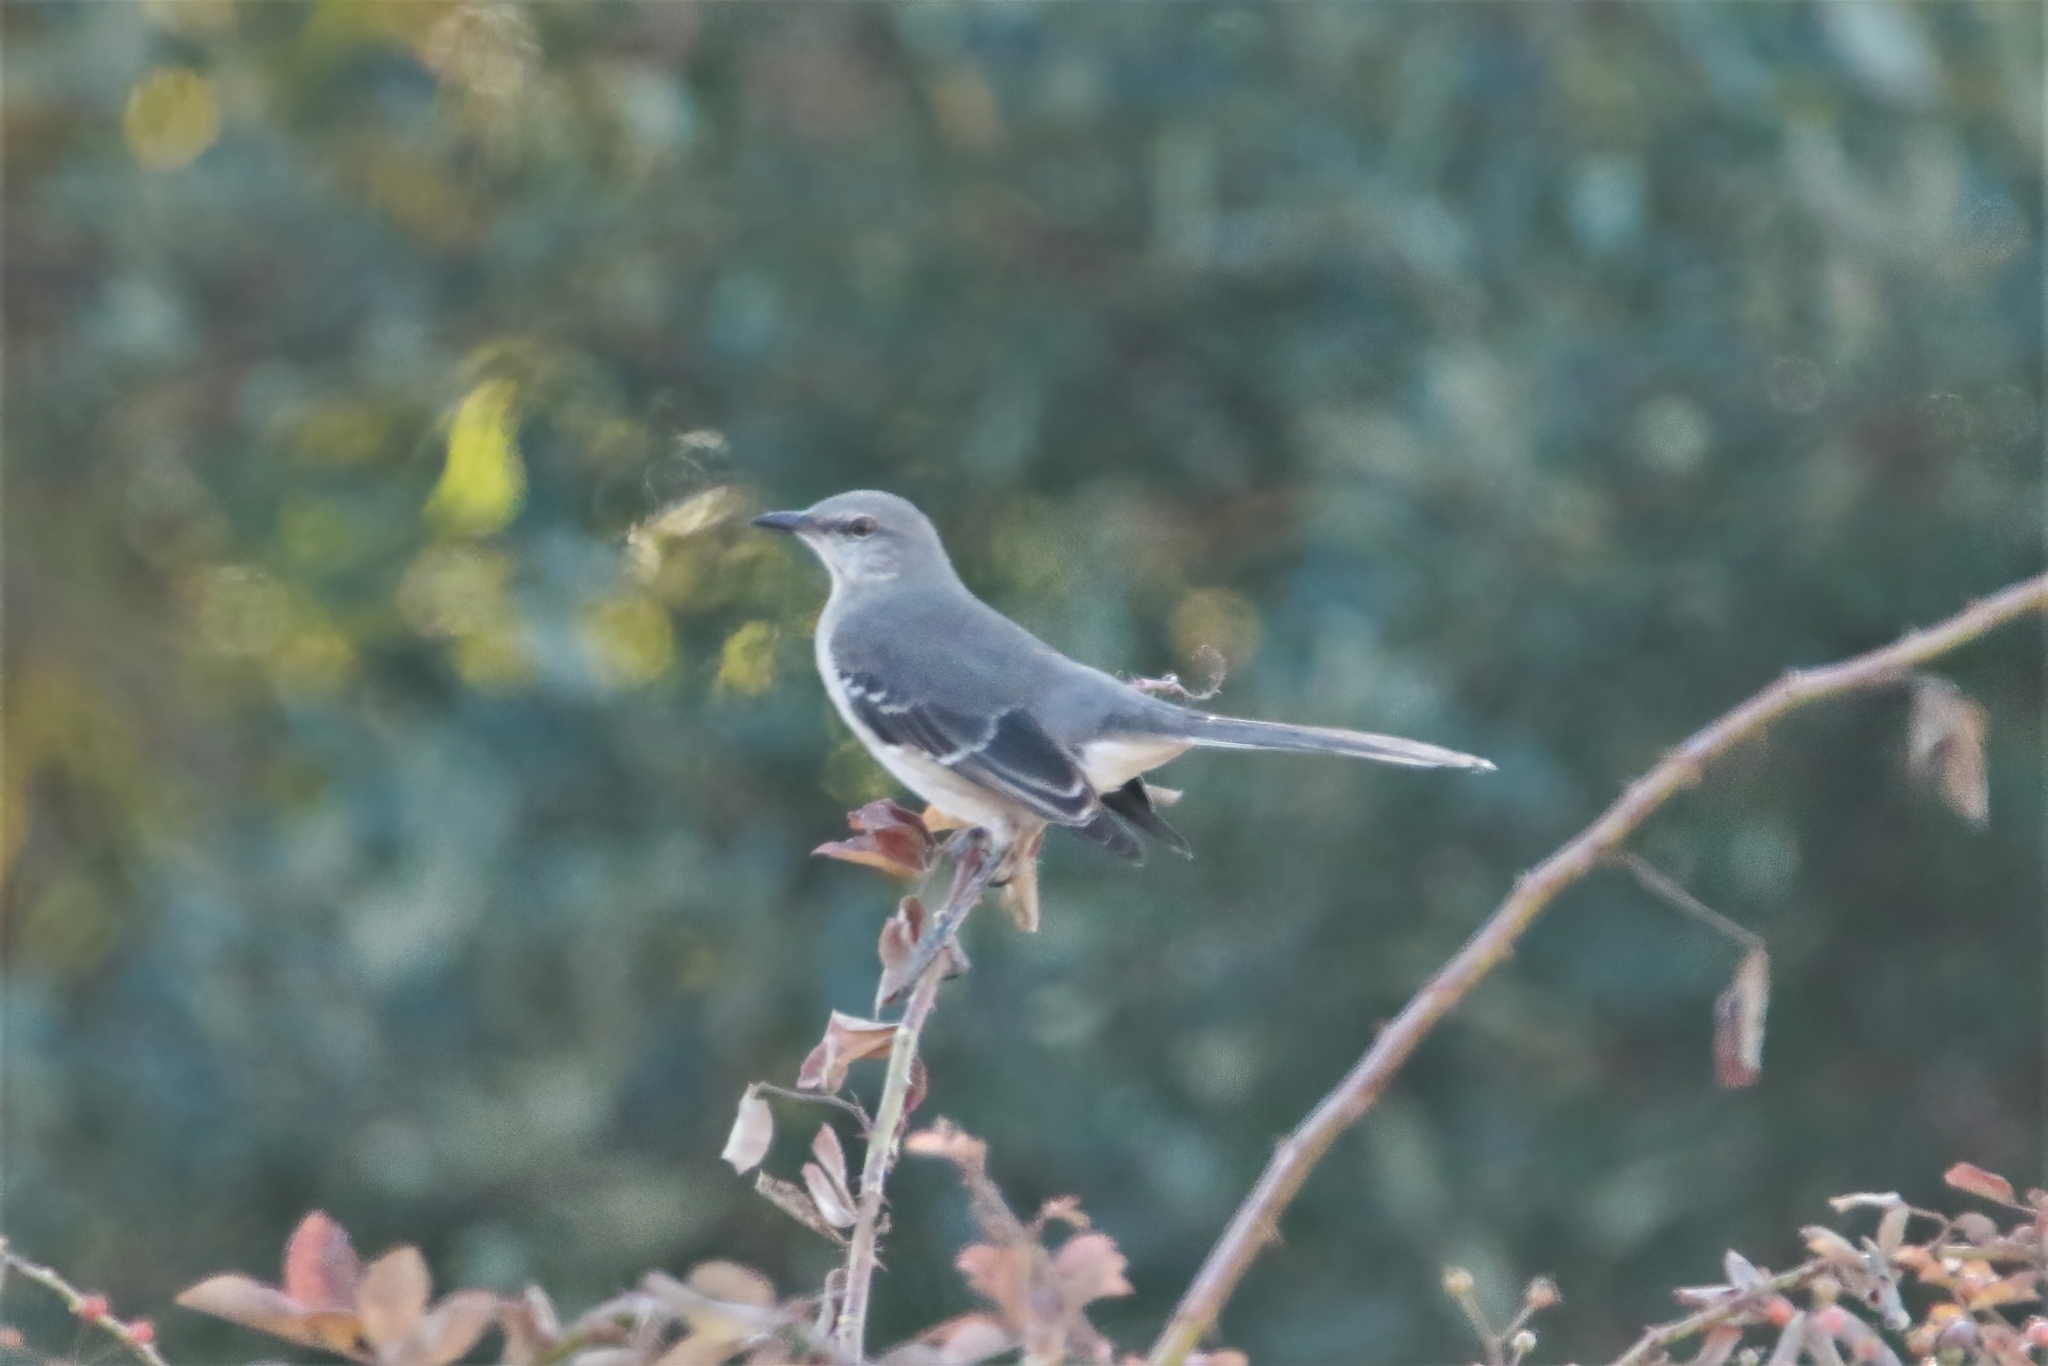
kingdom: Animalia
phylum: Chordata
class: Aves
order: Passeriformes
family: Mimidae
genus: Mimus
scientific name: Mimus polyglottos
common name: Northern mockingbird
